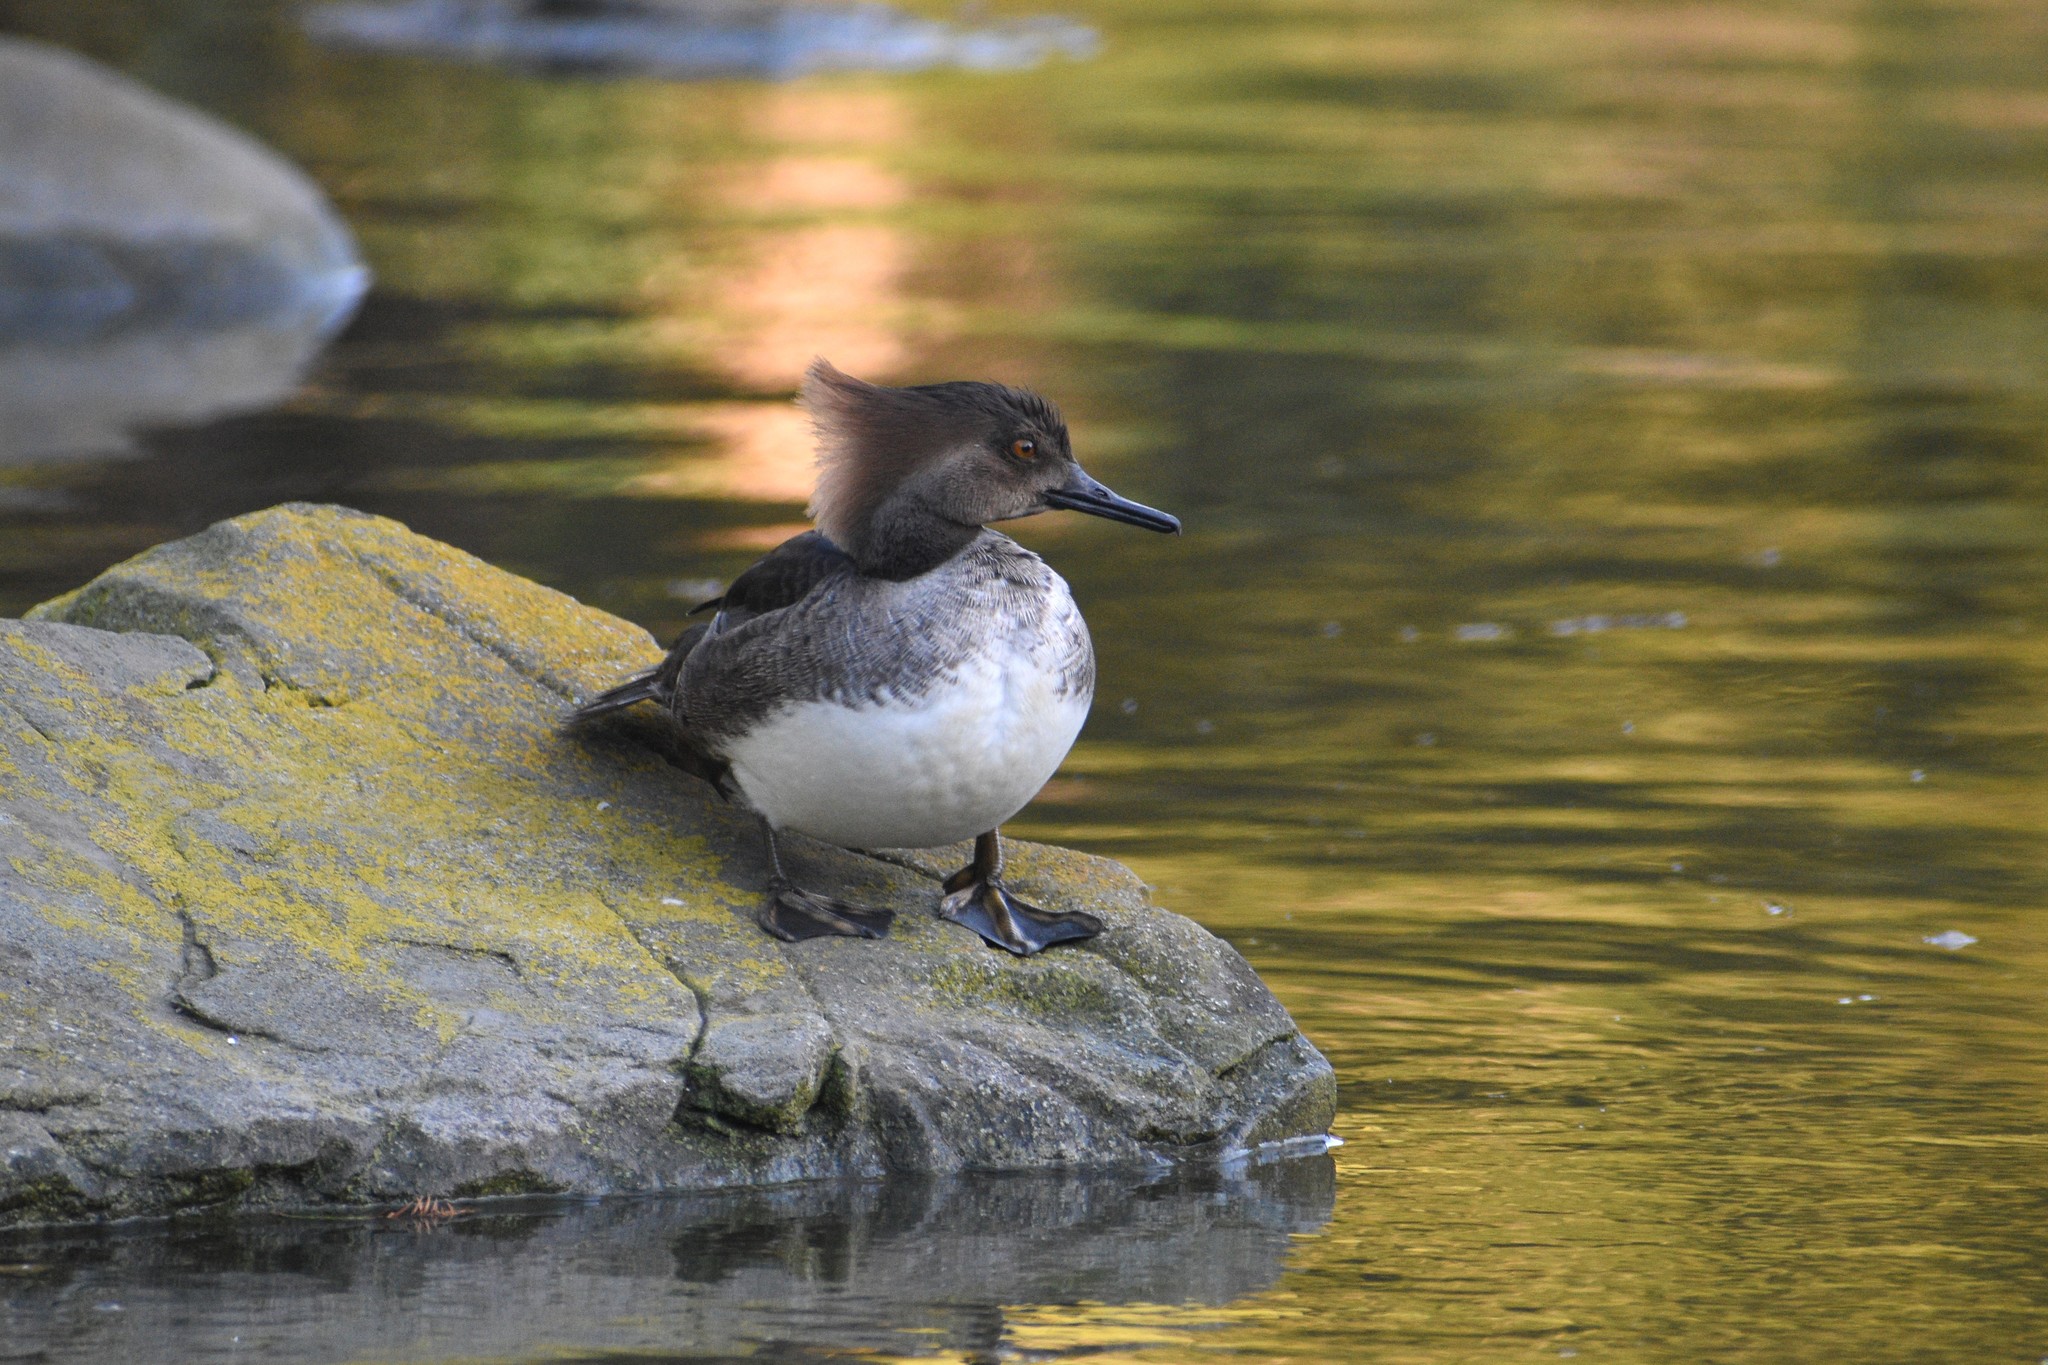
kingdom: Animalia
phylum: Chordata
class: Aves
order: Anseriformes
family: Anatidae
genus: Lophodytes
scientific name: Lophodytes cucullatus
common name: Hooded merganser
